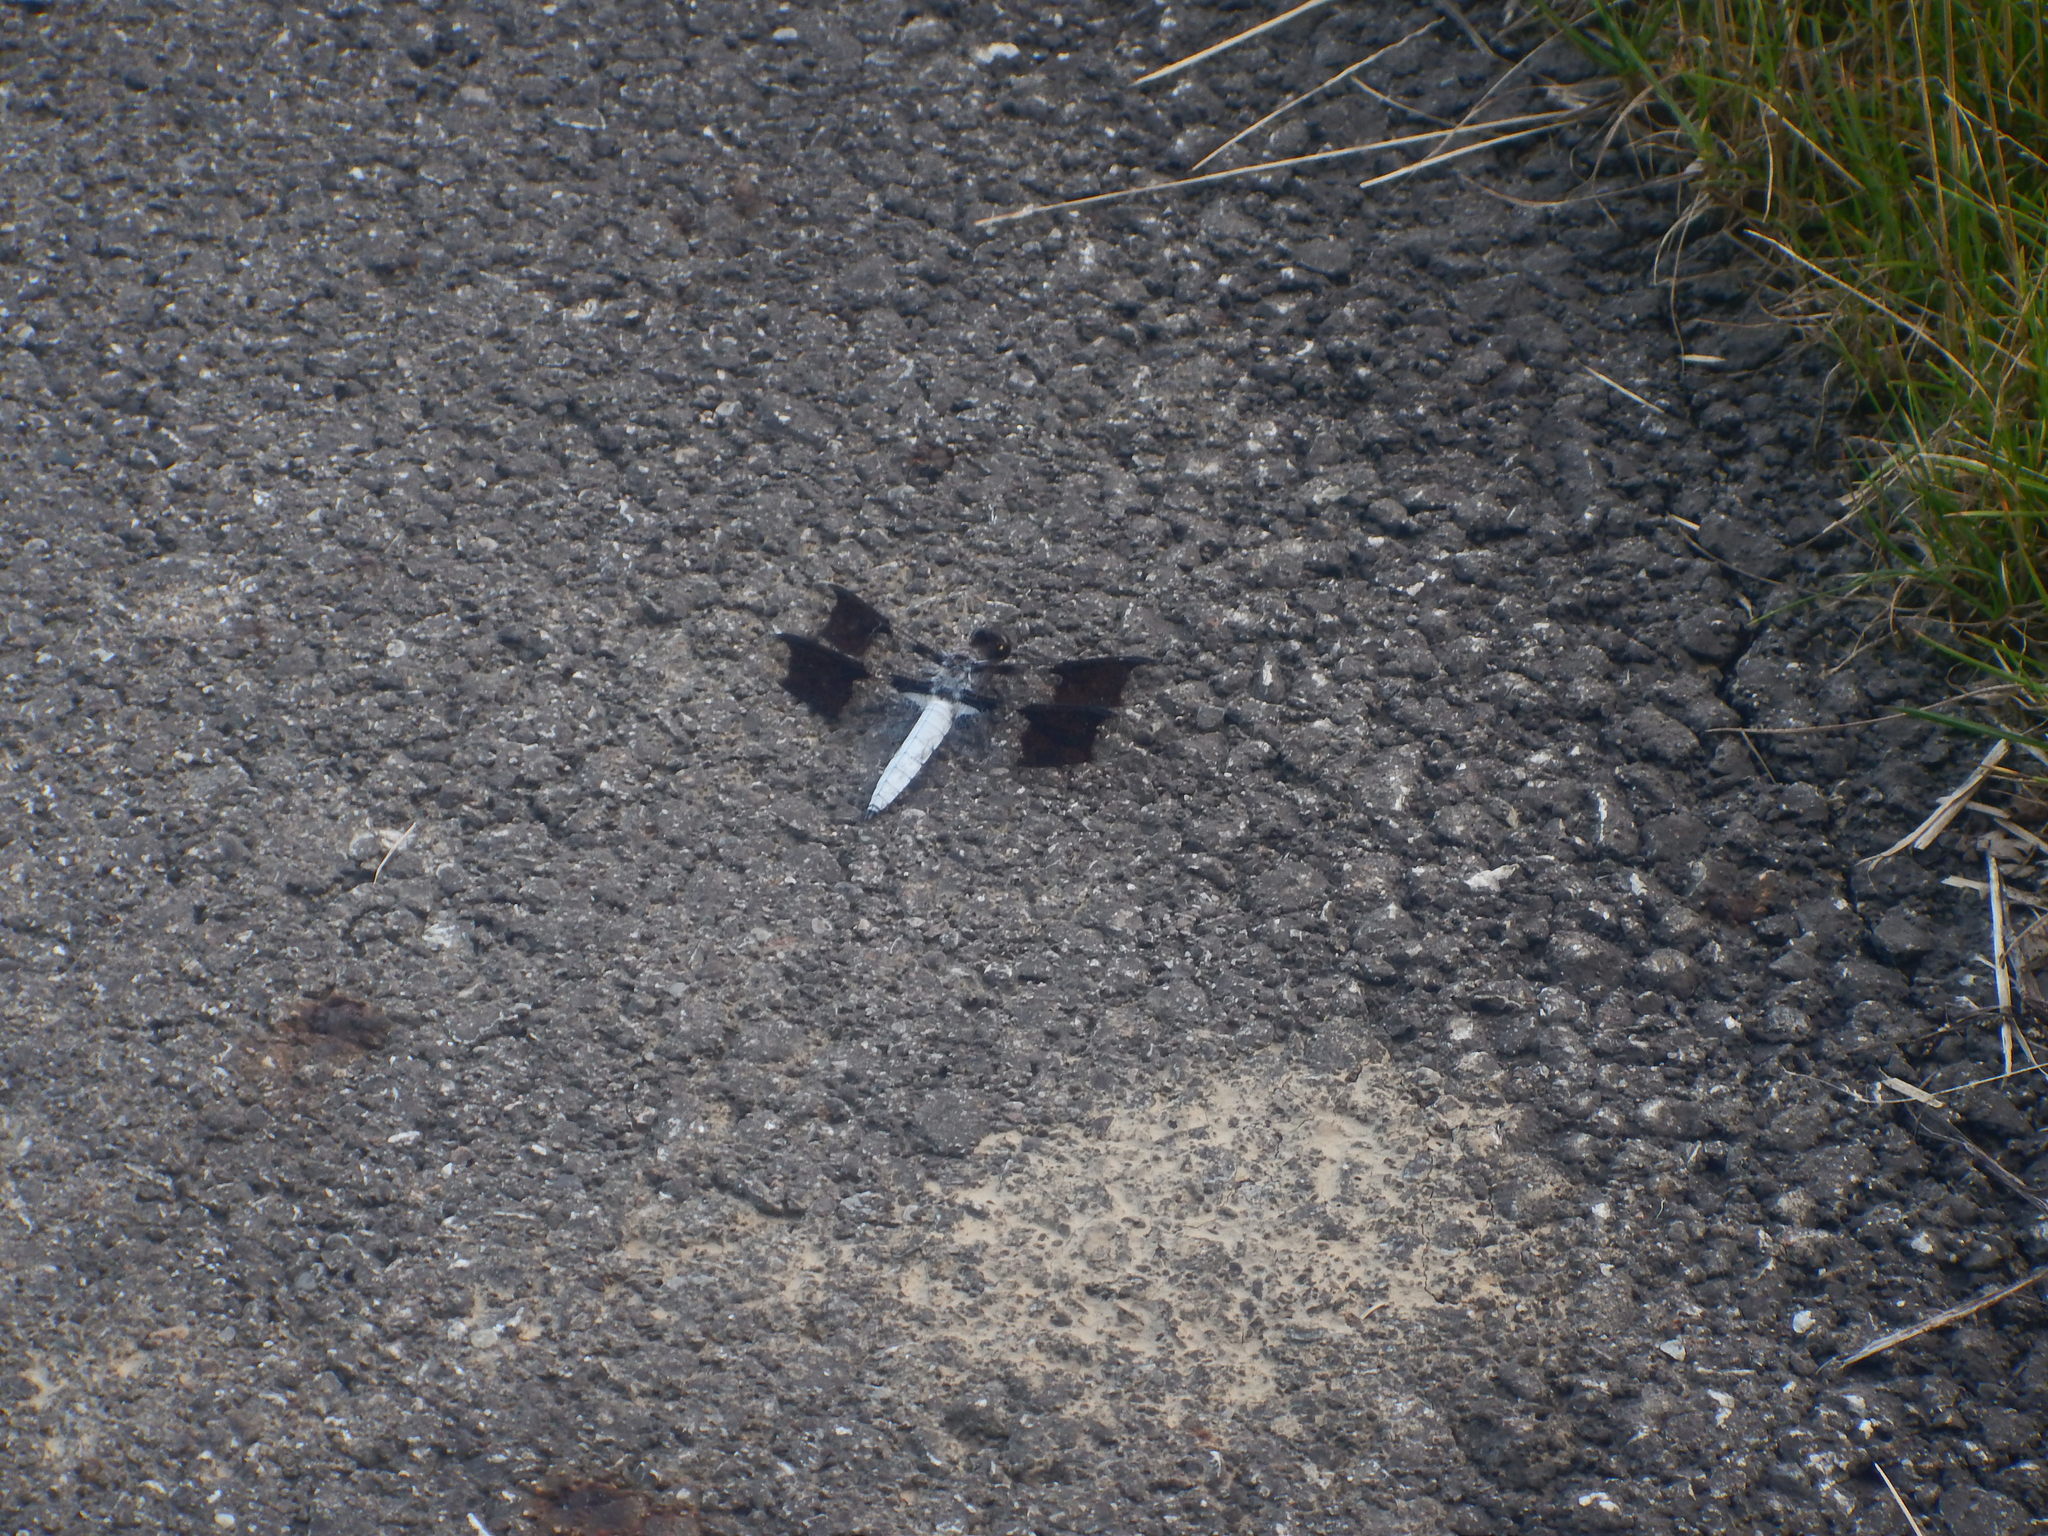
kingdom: Animalia
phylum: Arthropoda
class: Insecta
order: Odonata
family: Libellulidae
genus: Plathemis
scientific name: Plathemis lydia
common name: Common whitetail
